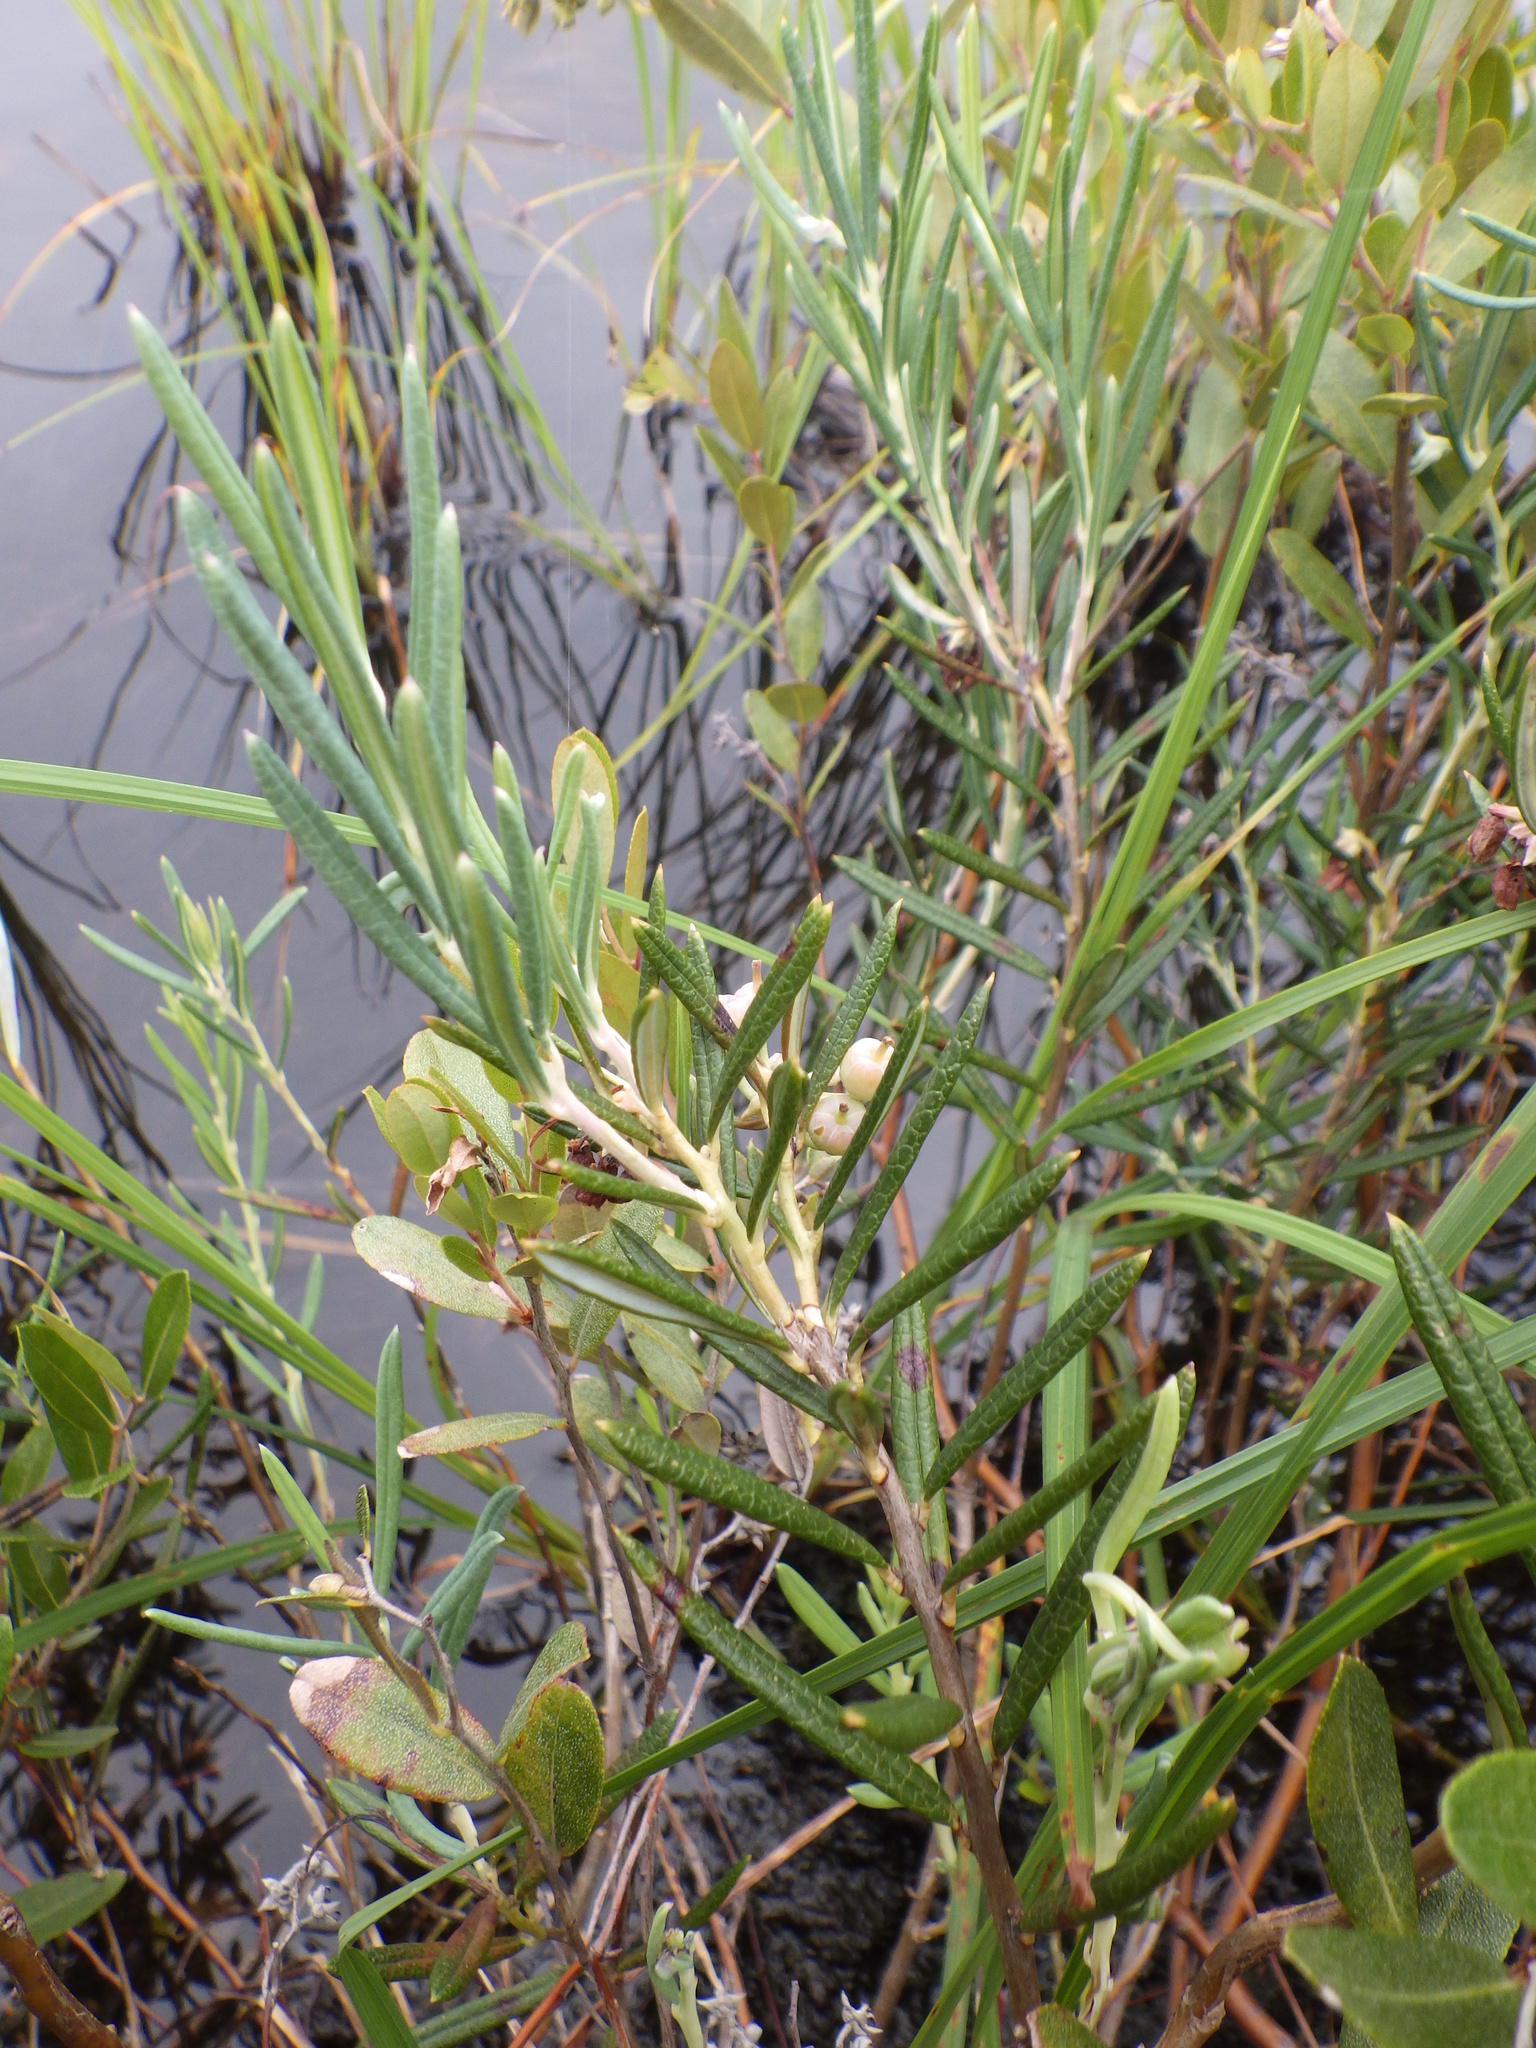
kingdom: Plantae
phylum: Tracheophyta
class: Magnoliopsida
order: Ericales
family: Ericaceae
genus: Kalmia
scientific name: Kalmia polifolia
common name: Bog-laurel
